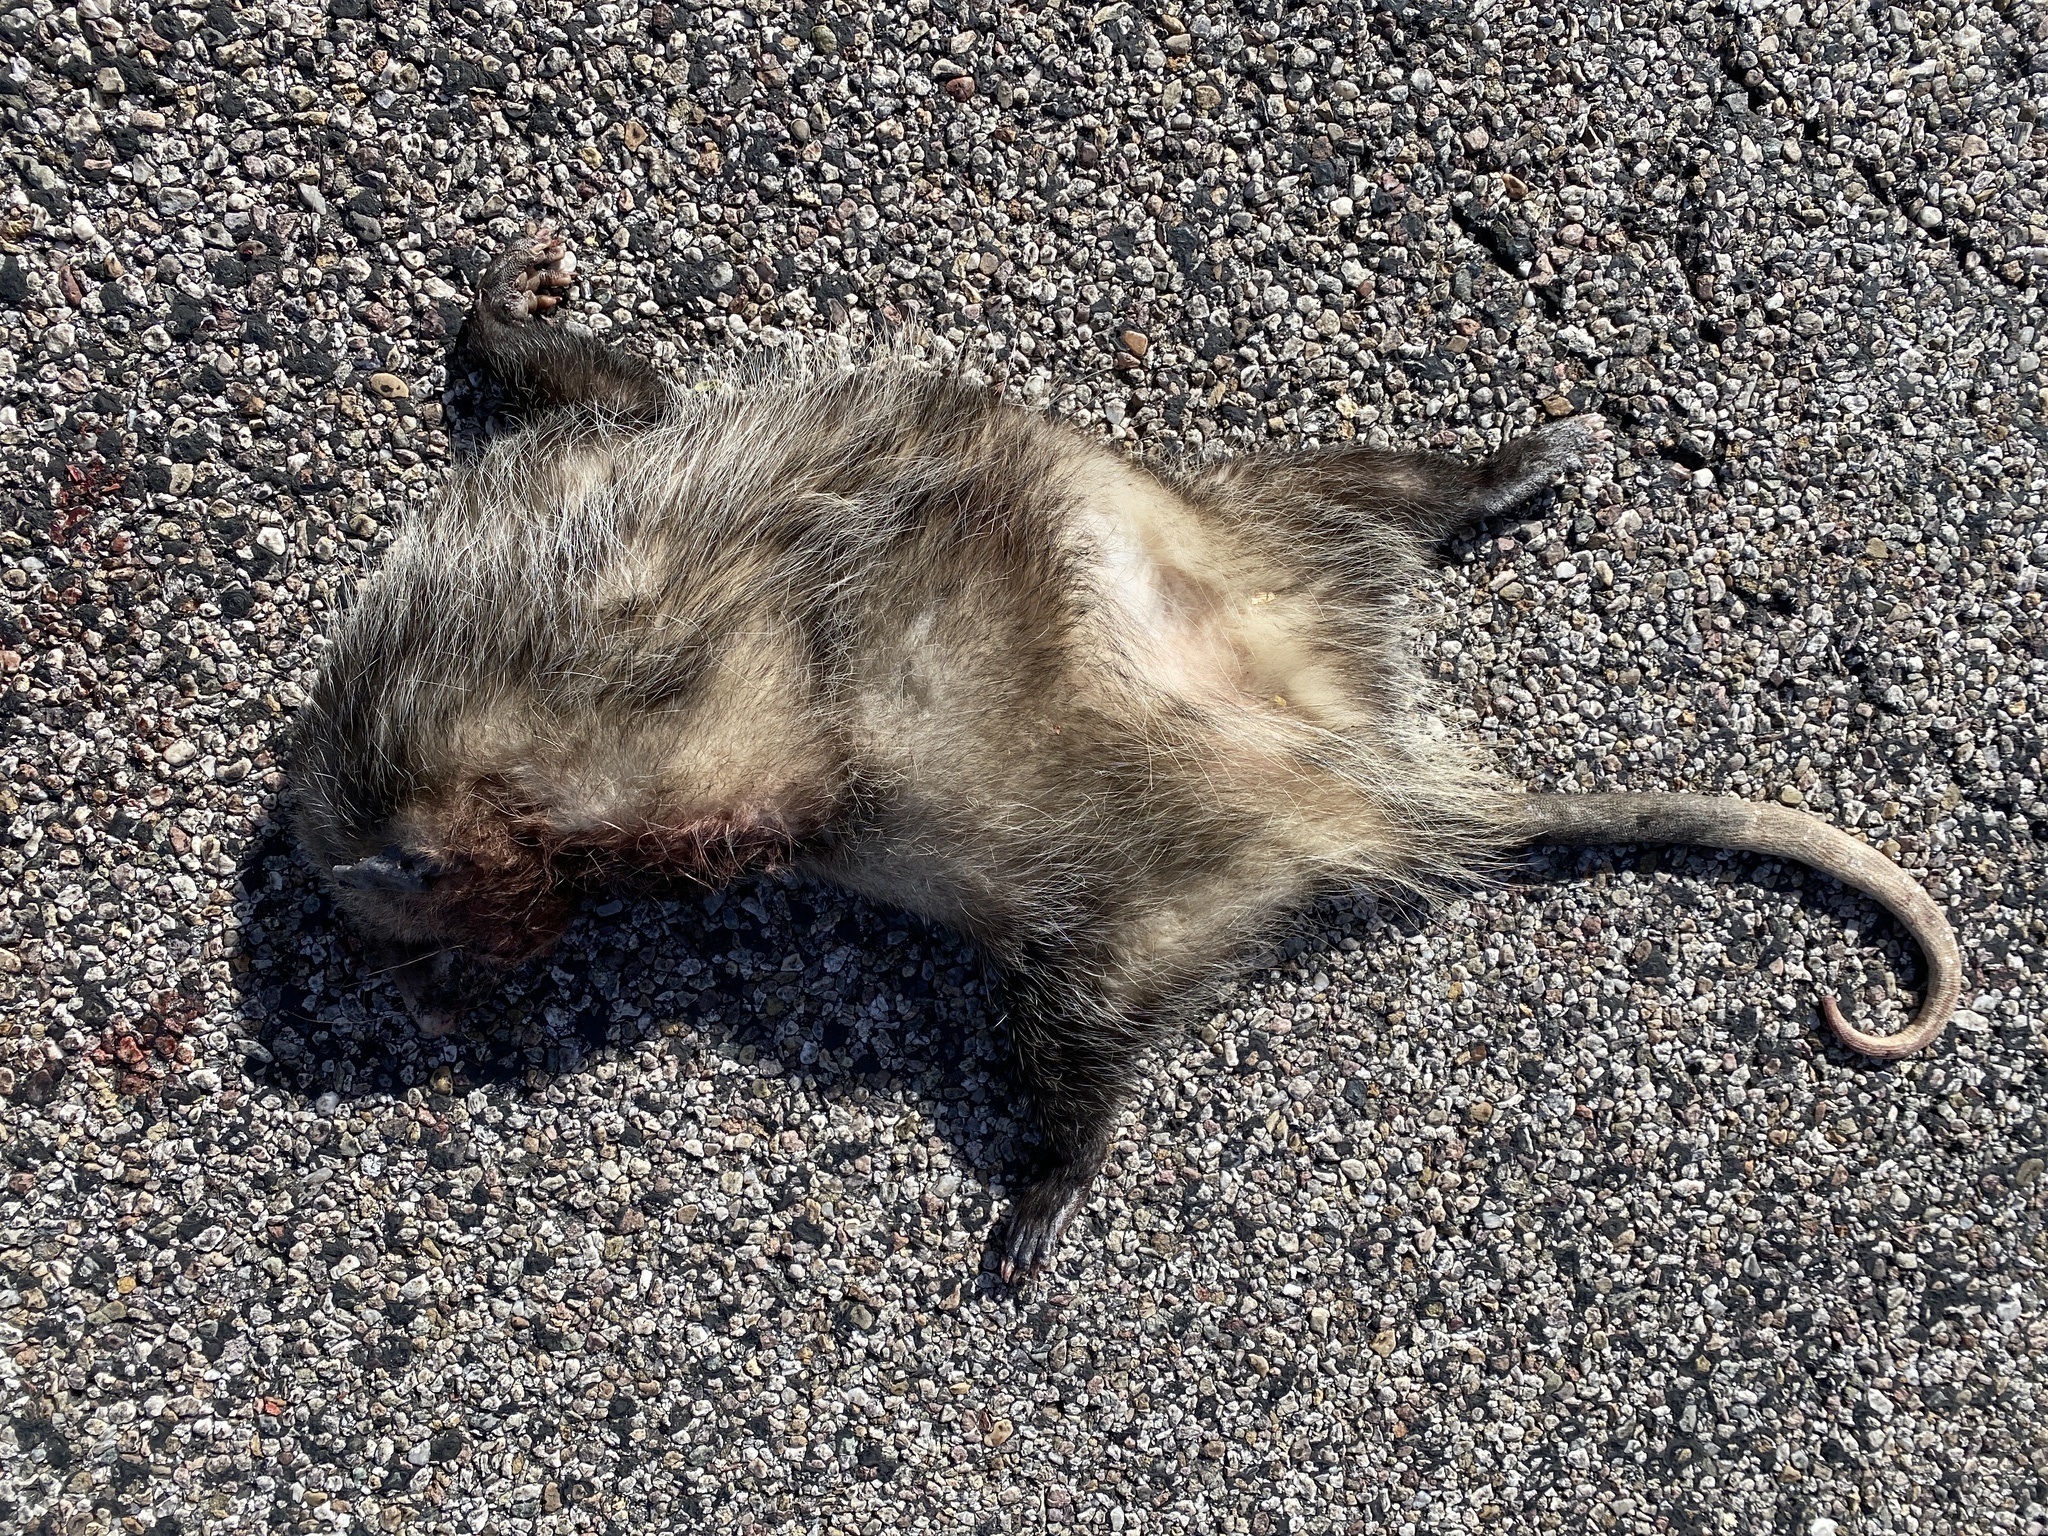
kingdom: Animalia
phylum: Chordata
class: Mammalia
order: Didelphimorphia
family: Didelphidae
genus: Didelphis
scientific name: Didelphis virginiana
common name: Virginia opossum
